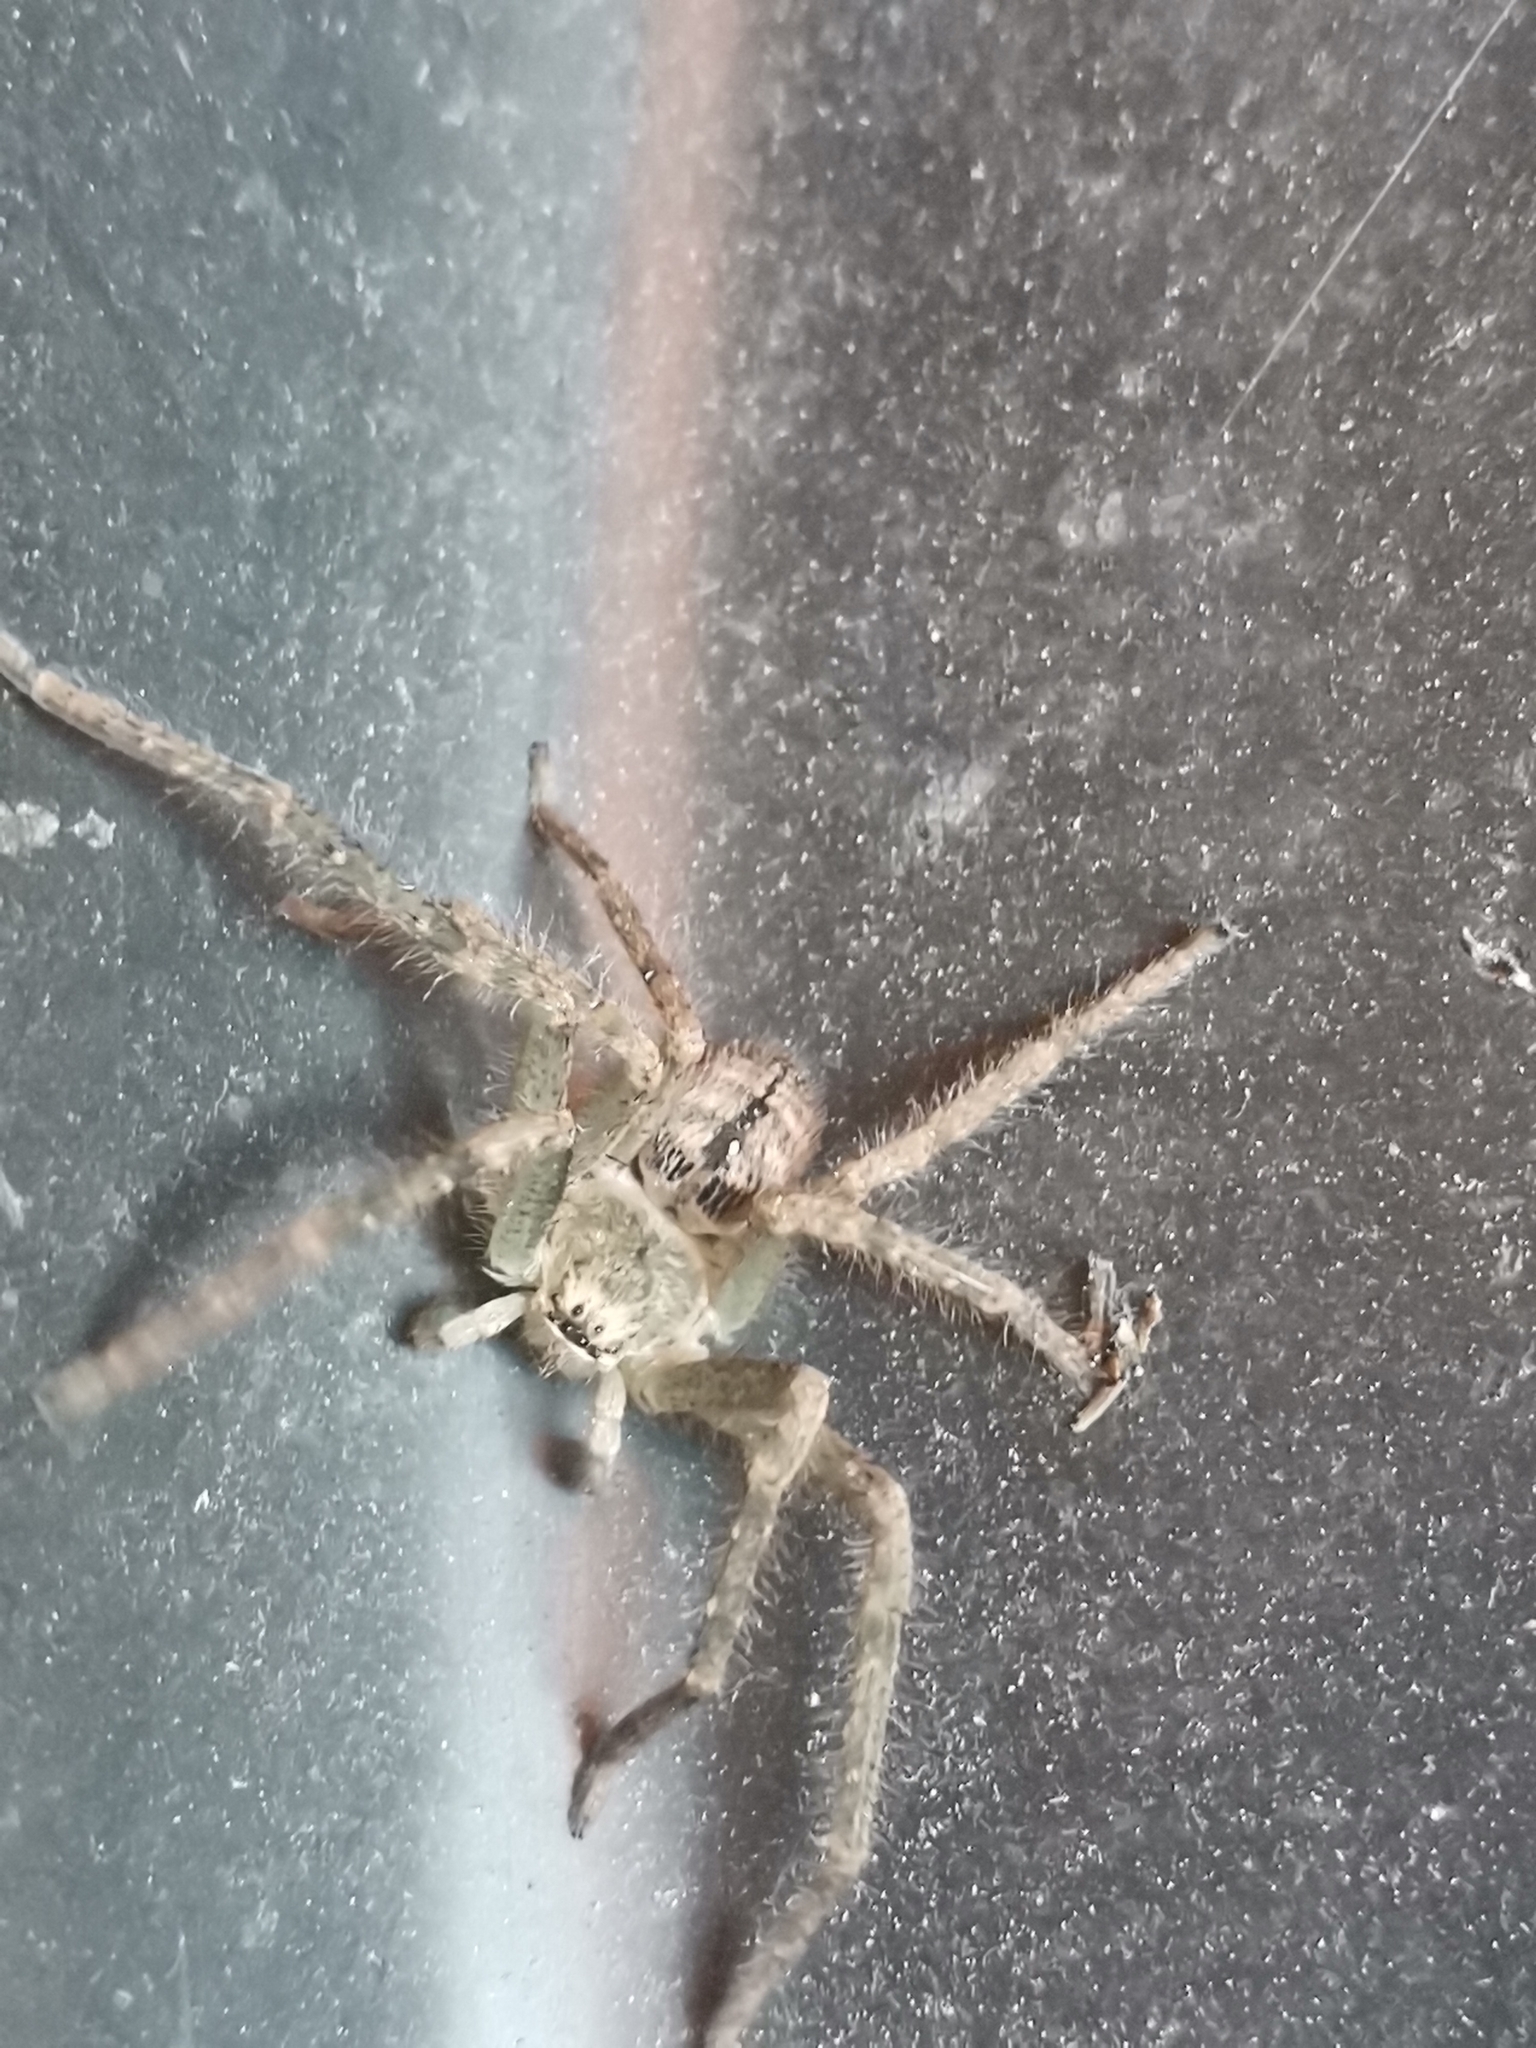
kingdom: Animalia
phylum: Arthropoda
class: Arachnida
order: Araneae
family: Sparassidae
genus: Polybetes
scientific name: Polybetes rapidus
